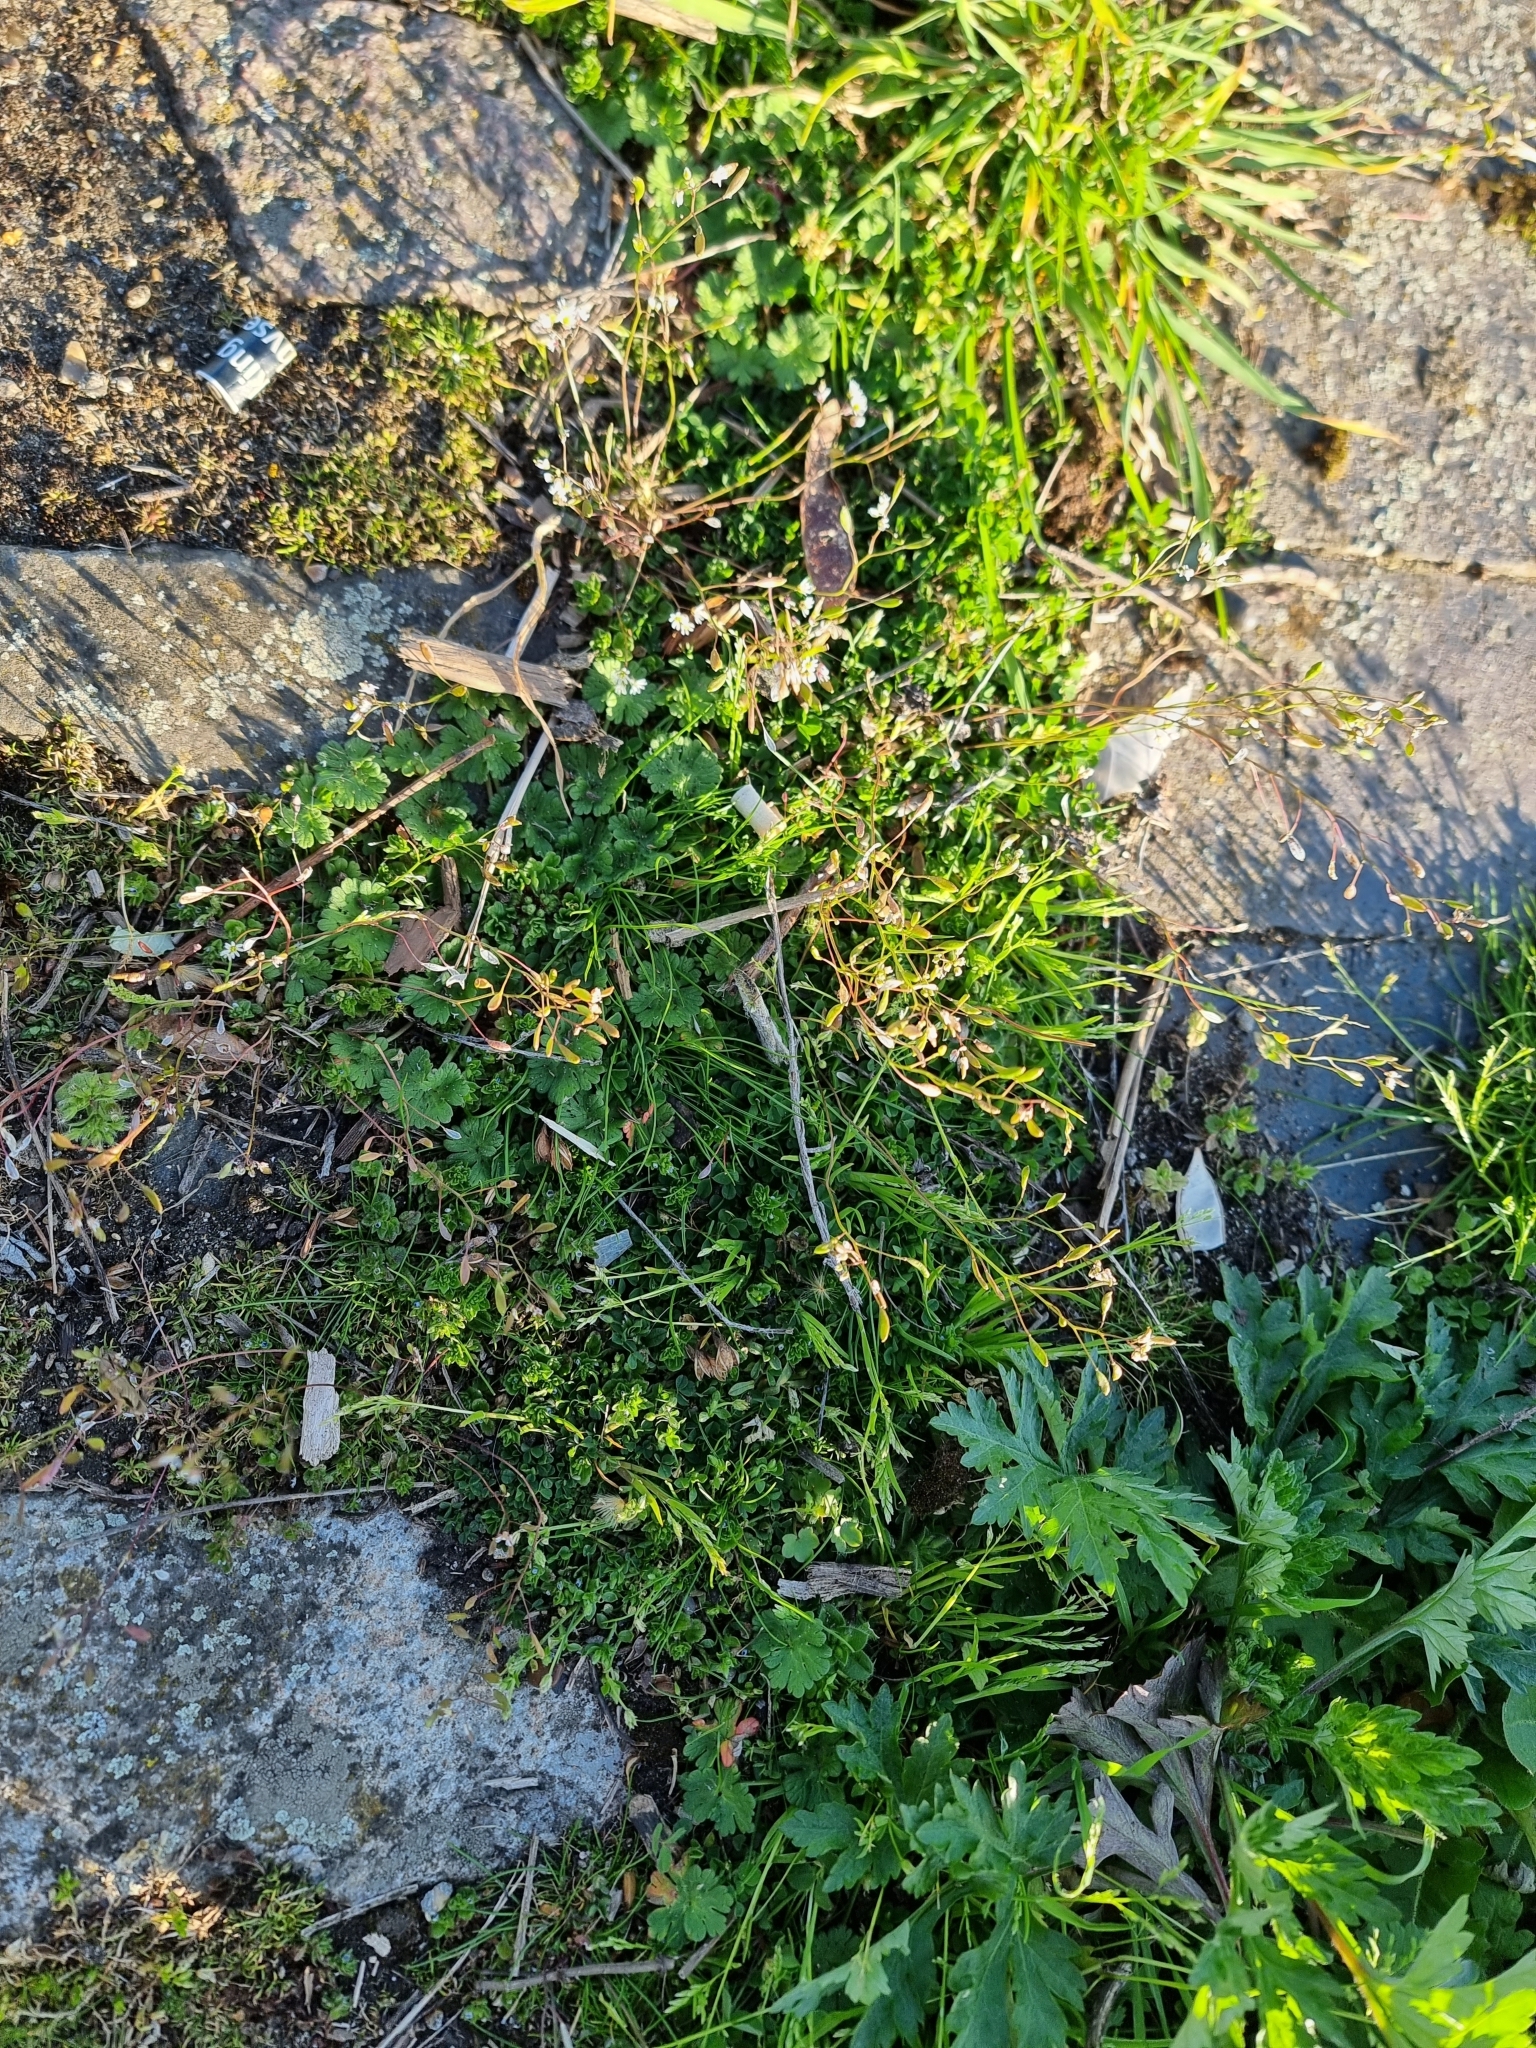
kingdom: Plantae
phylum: Tracheophyta
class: Magnoliopsida
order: Brassicales
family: Brassicaceae
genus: Draba
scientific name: Draba verna
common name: Spring draba
